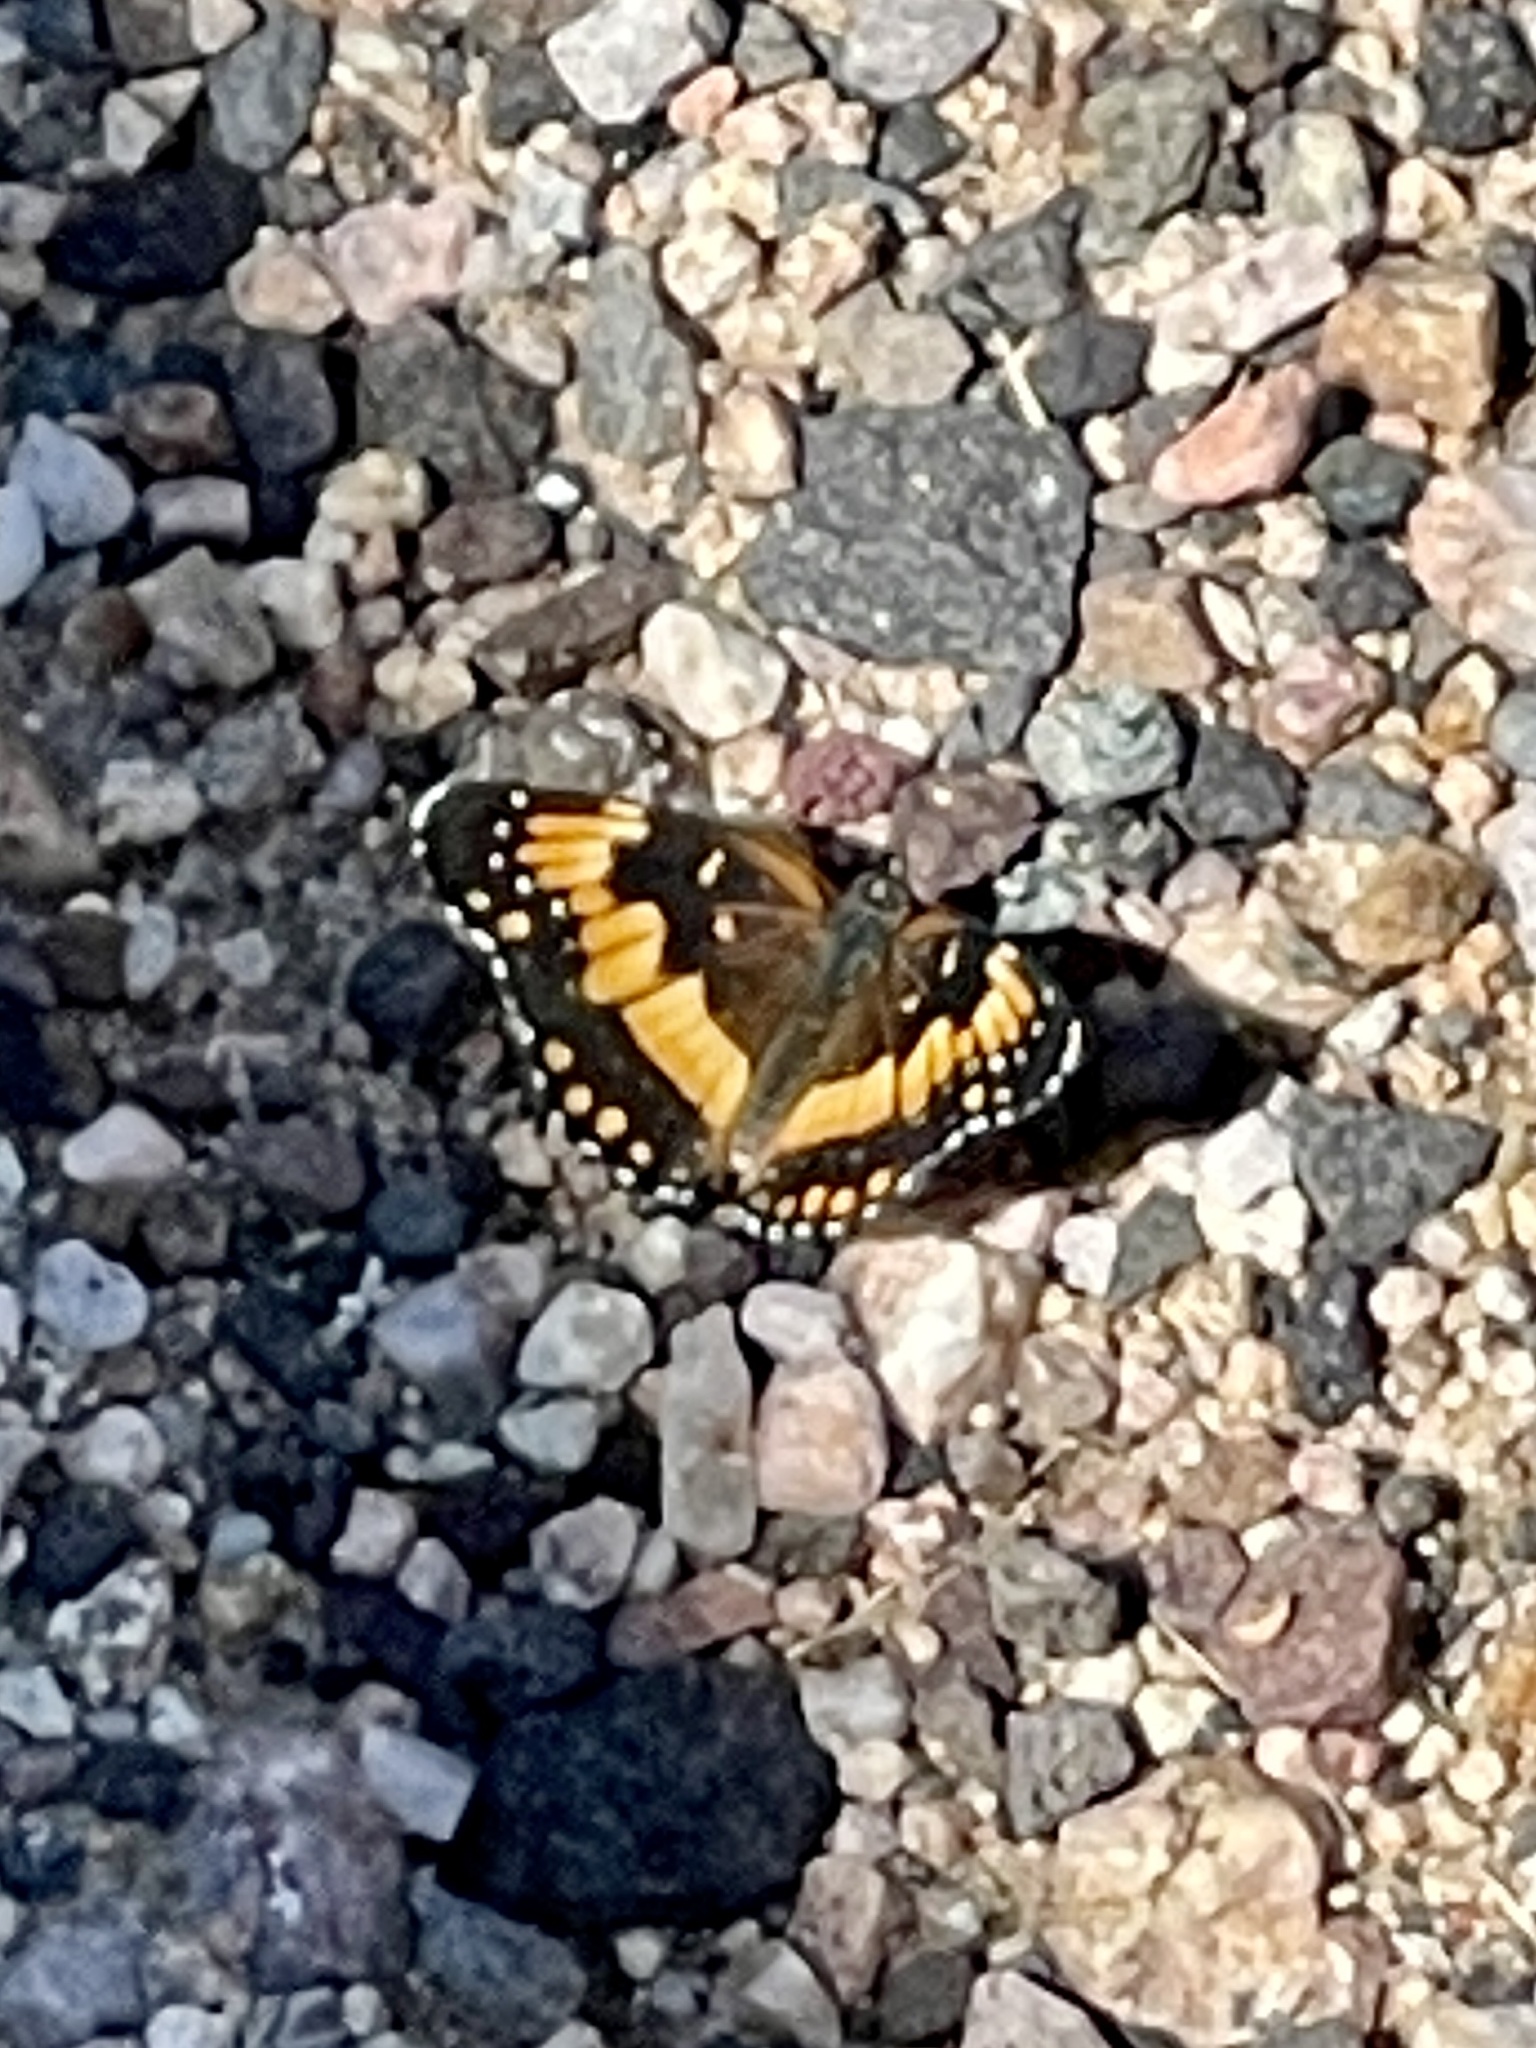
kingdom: Animalia
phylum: Arthropoda
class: Insecta
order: Lepidoptera
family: Nymphalidae
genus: Chlosyne
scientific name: Chlosyne californica
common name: California patch
